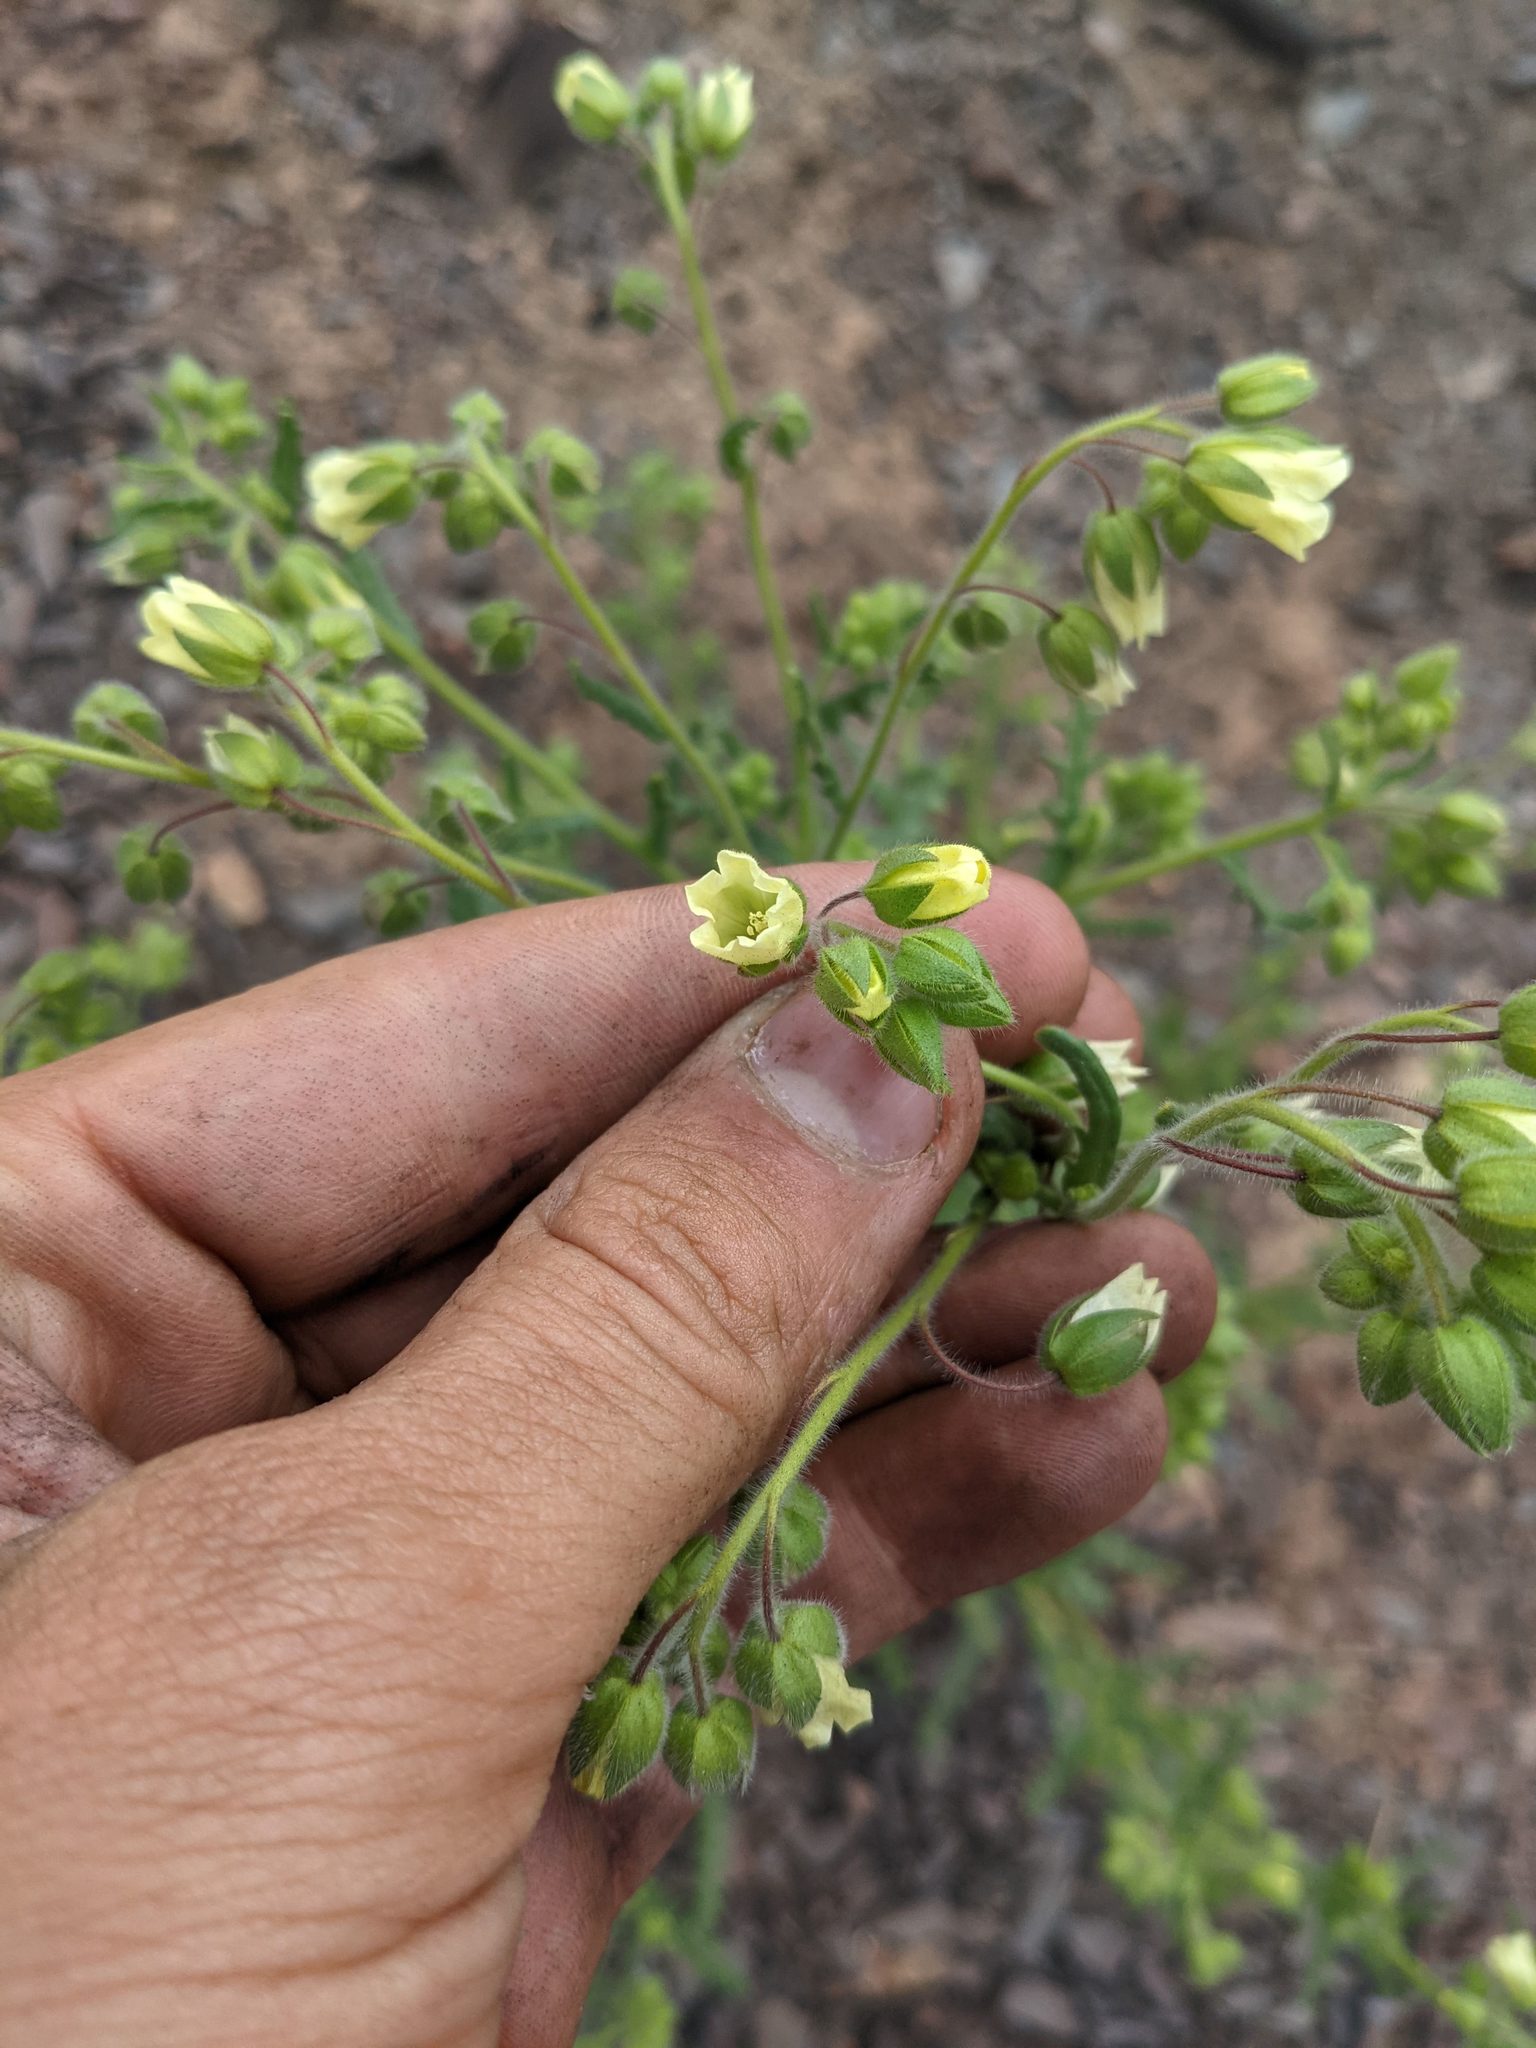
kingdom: Plantae
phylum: Tracheophyta
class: Magnoliopsida
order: Boraginales
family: Hydrophyllaceae
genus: Emmenanthe
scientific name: Emmenanthe penduliflora
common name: Whispering-bells
